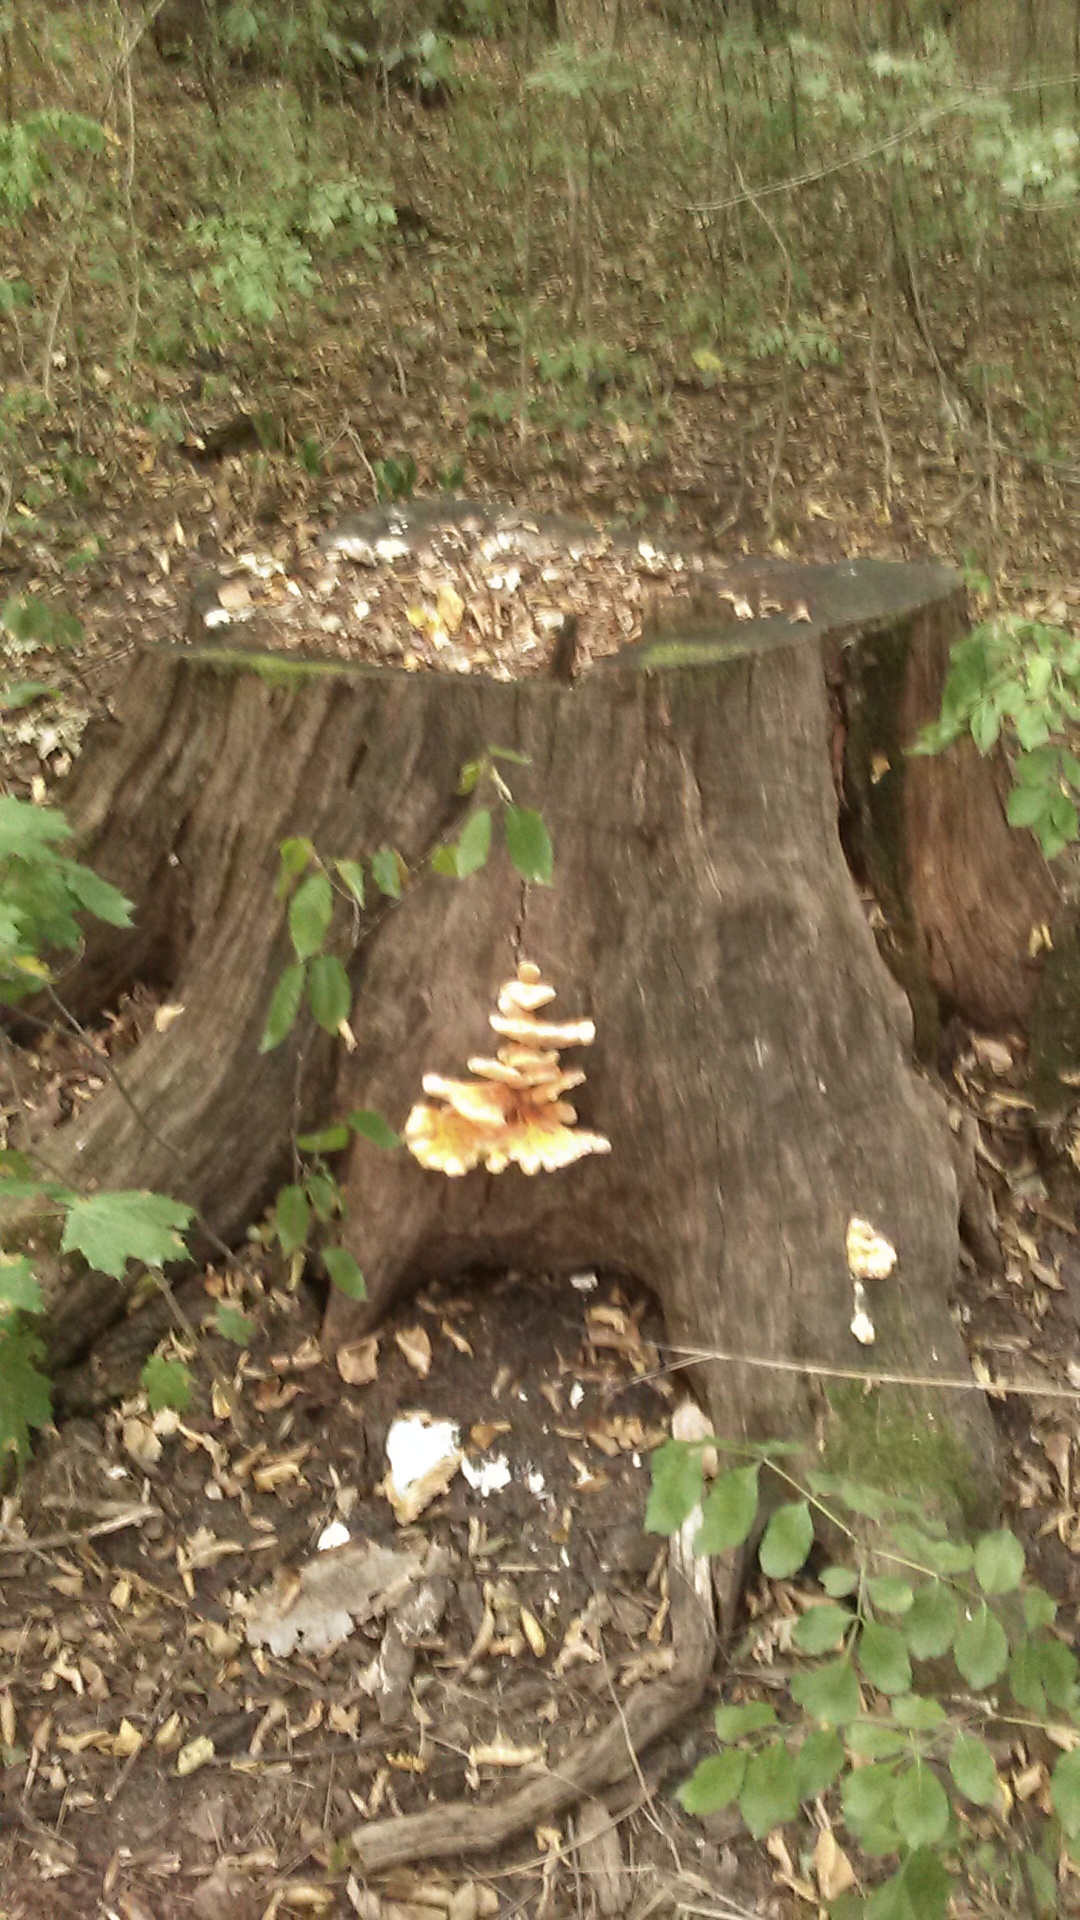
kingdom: Fungi
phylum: Basidiomycota
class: Agaricomycetes
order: Polyporales
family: Laetiporaceae
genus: Laetiporus
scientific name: Laetiporus sulphureus
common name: Chicken of the woods
